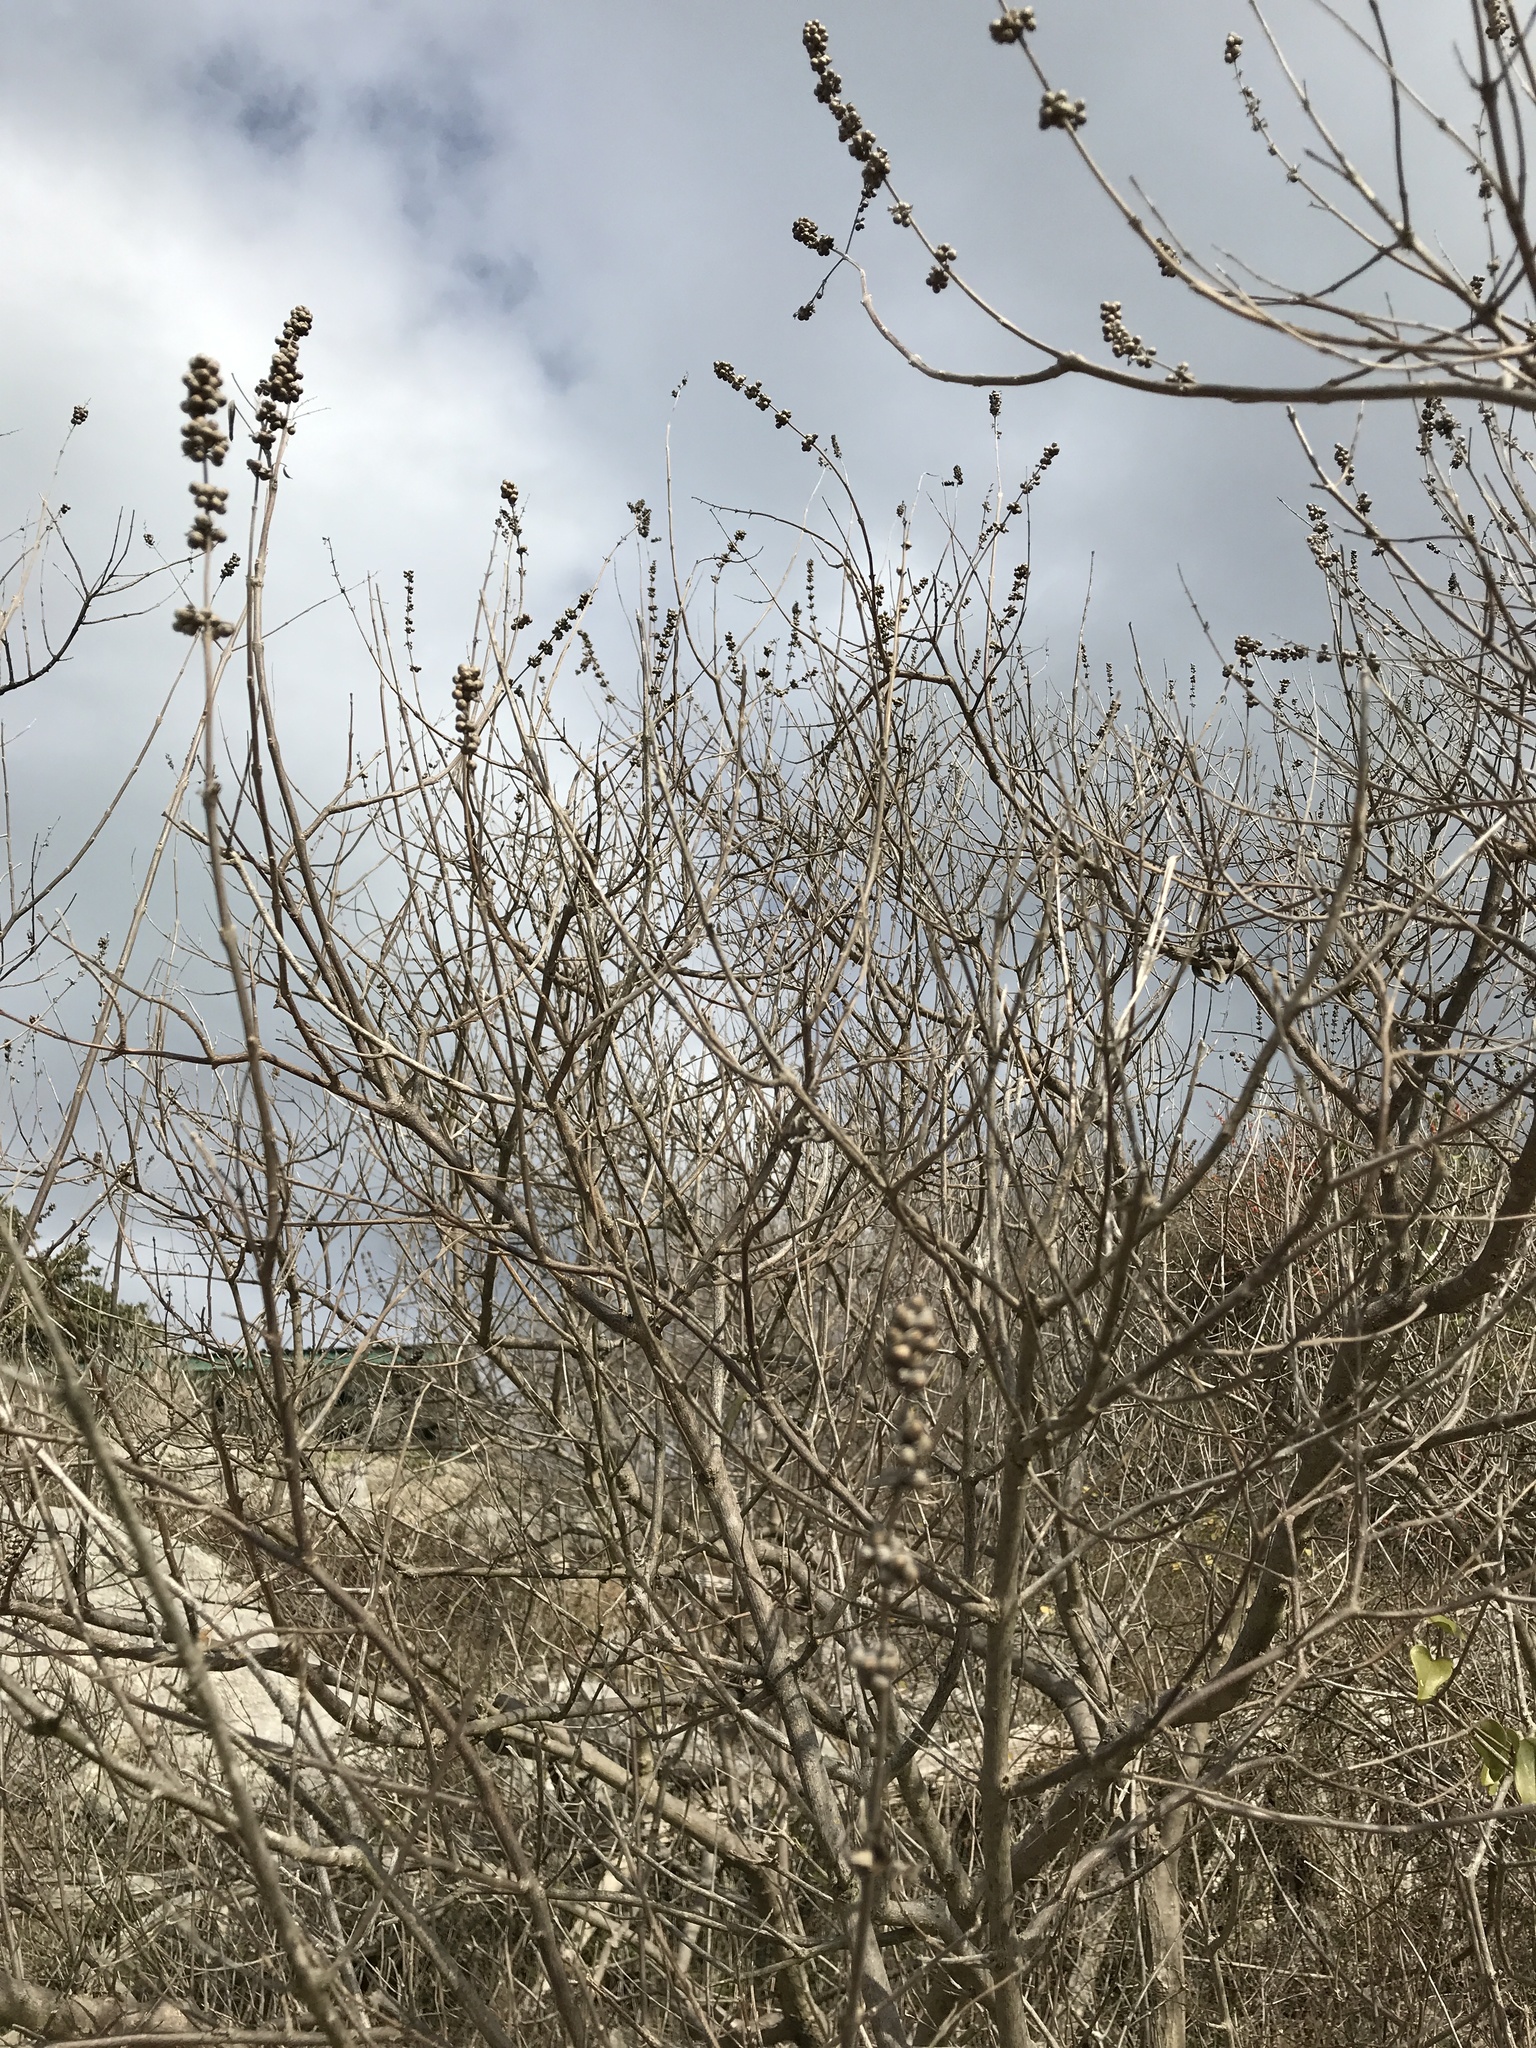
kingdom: Plantae
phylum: Tracheophyta
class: Magnoliopsida
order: Lamiales
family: Lamiaceae
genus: Vitex
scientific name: Vitex agnus-castus
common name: Chasteberry
